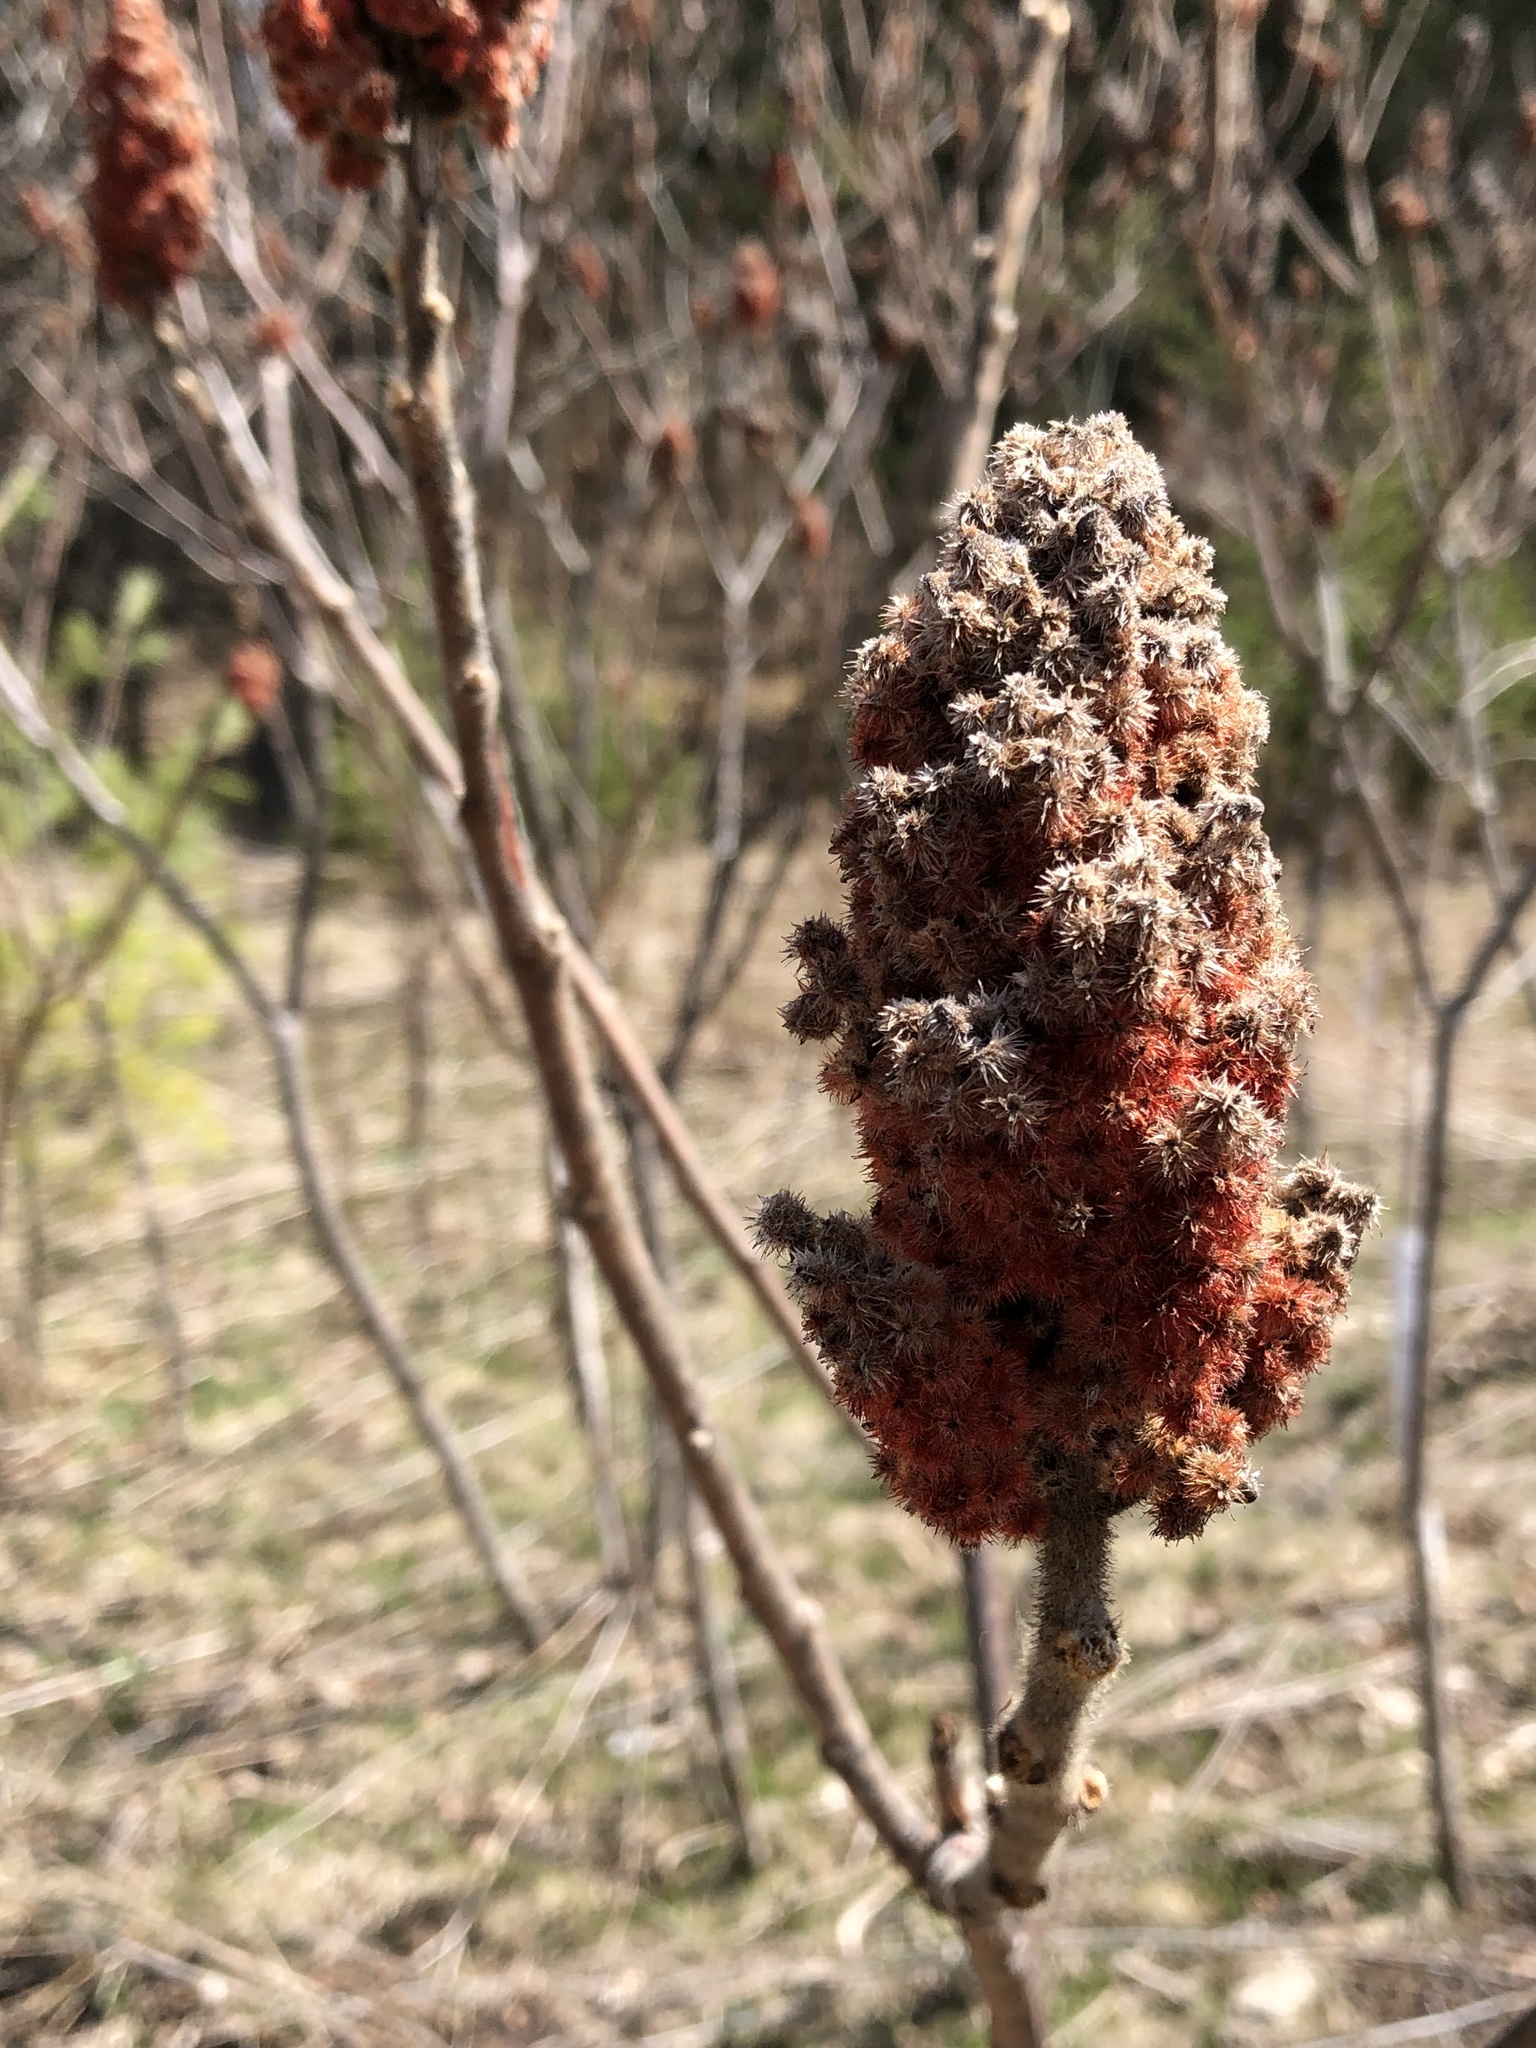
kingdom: Plantae
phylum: Tracheophyta
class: Magnoliopsida
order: Sapindales
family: Anacardiaceae
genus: Rhus
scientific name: Rhus typhina
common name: Staghorn sumac
